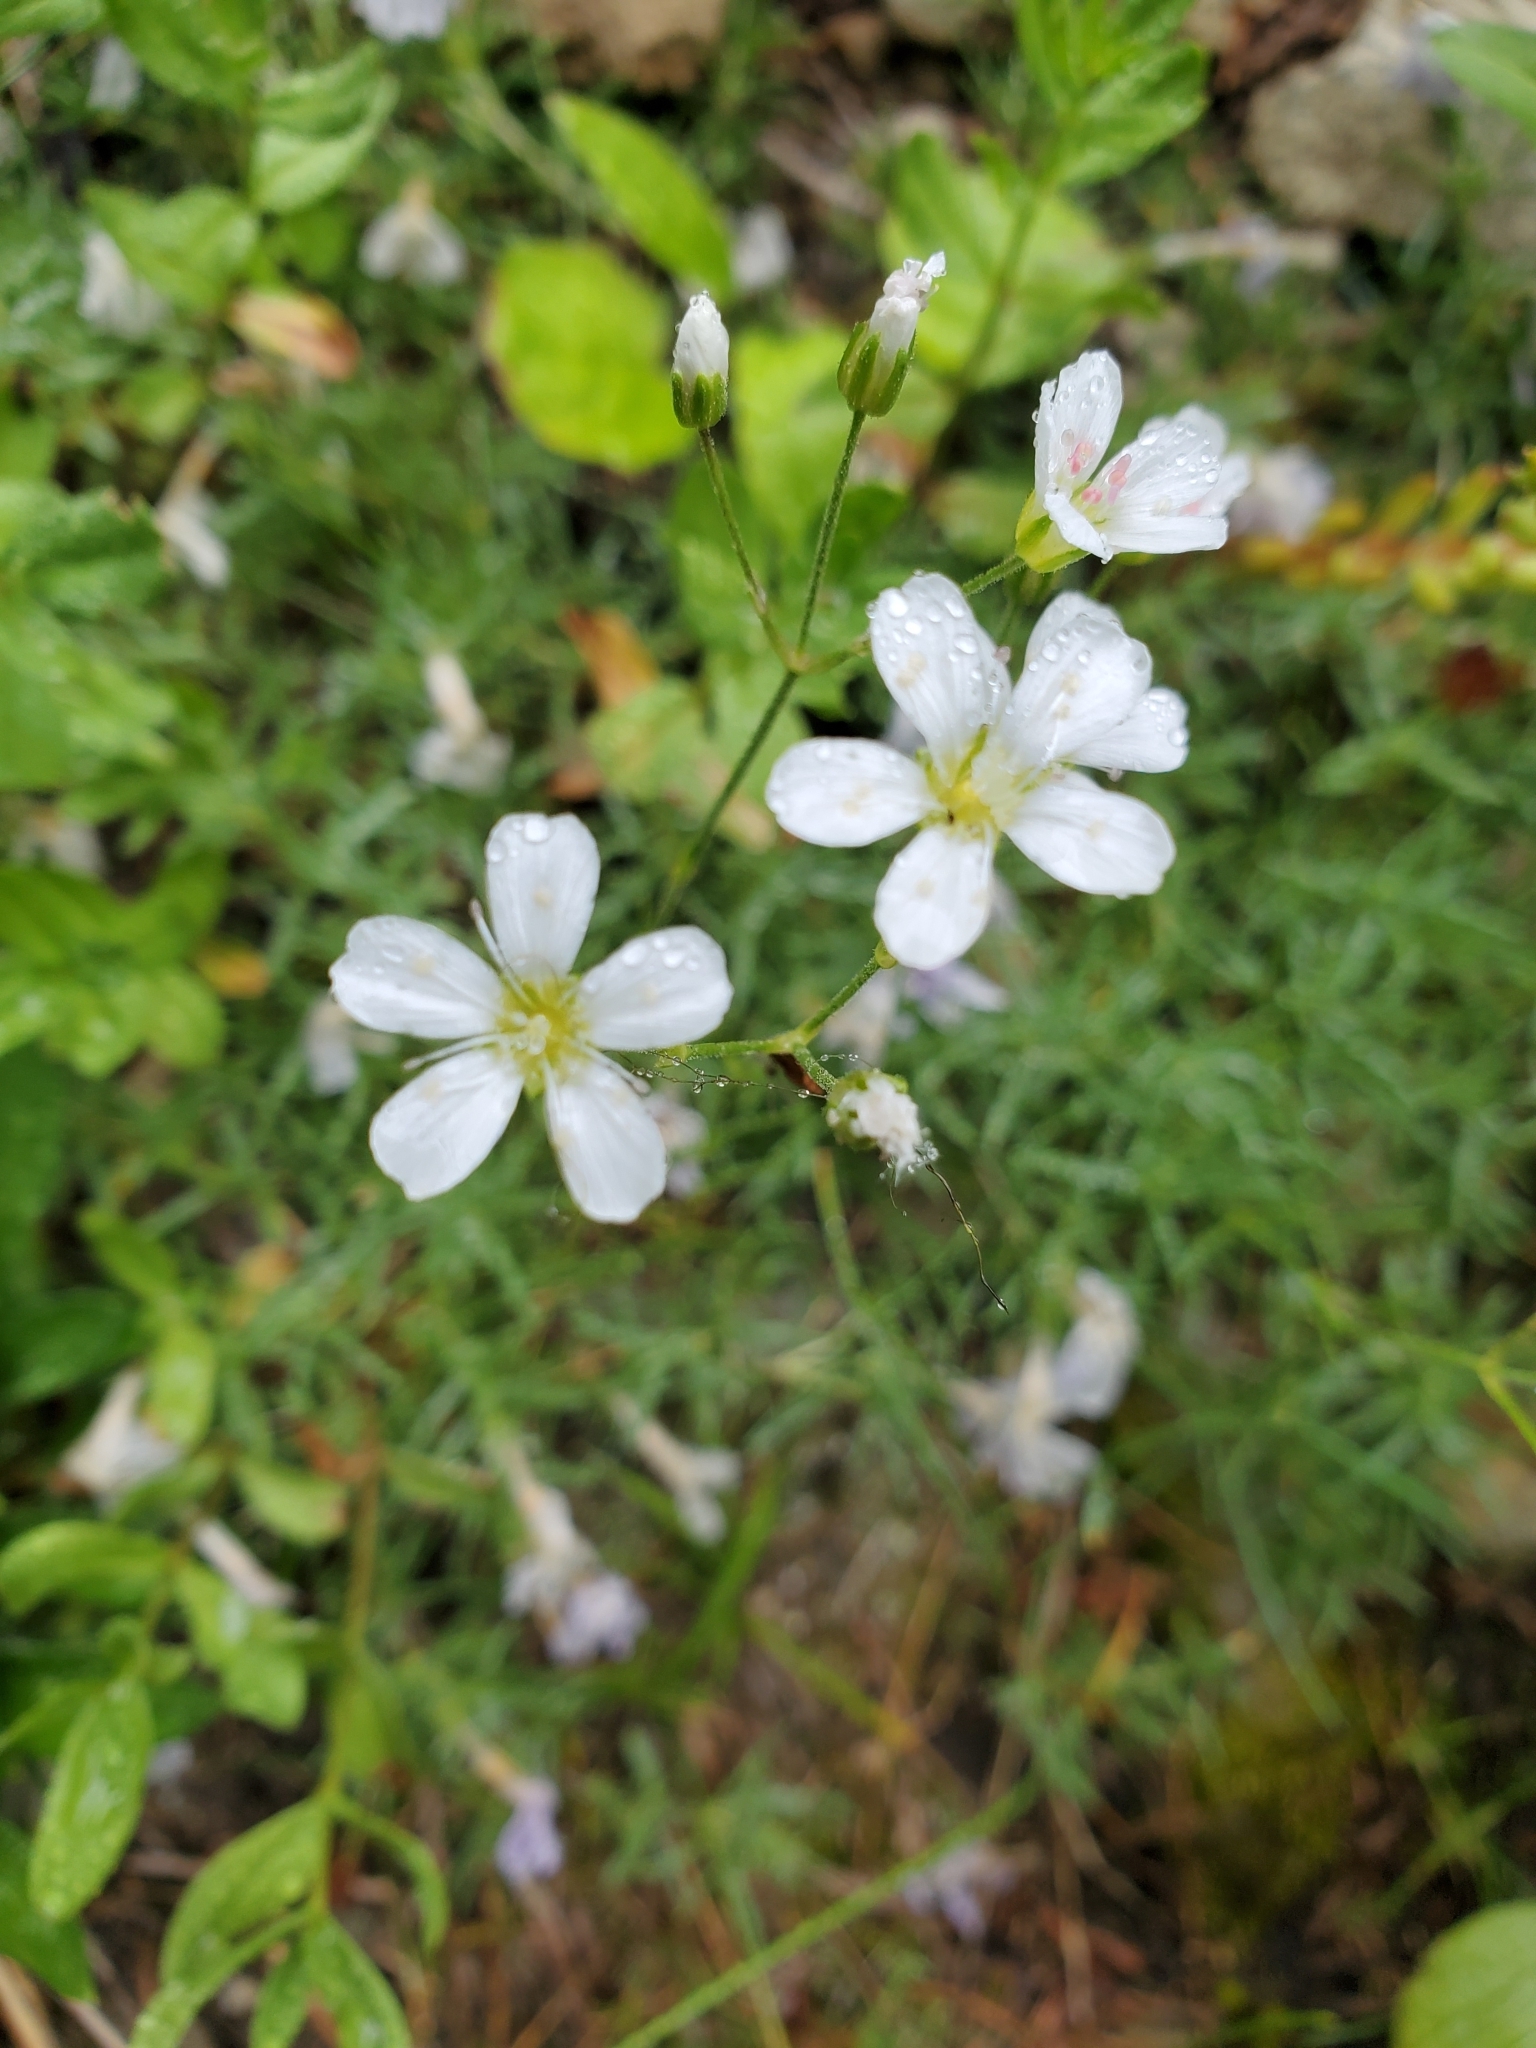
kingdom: Plantae
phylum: Tracheophyta
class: Magnoliopsida
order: Caryophyllales
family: Caryophyllaceae
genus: Eremogone
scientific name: Eremogone capillaris
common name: Slender mountain sandwort
